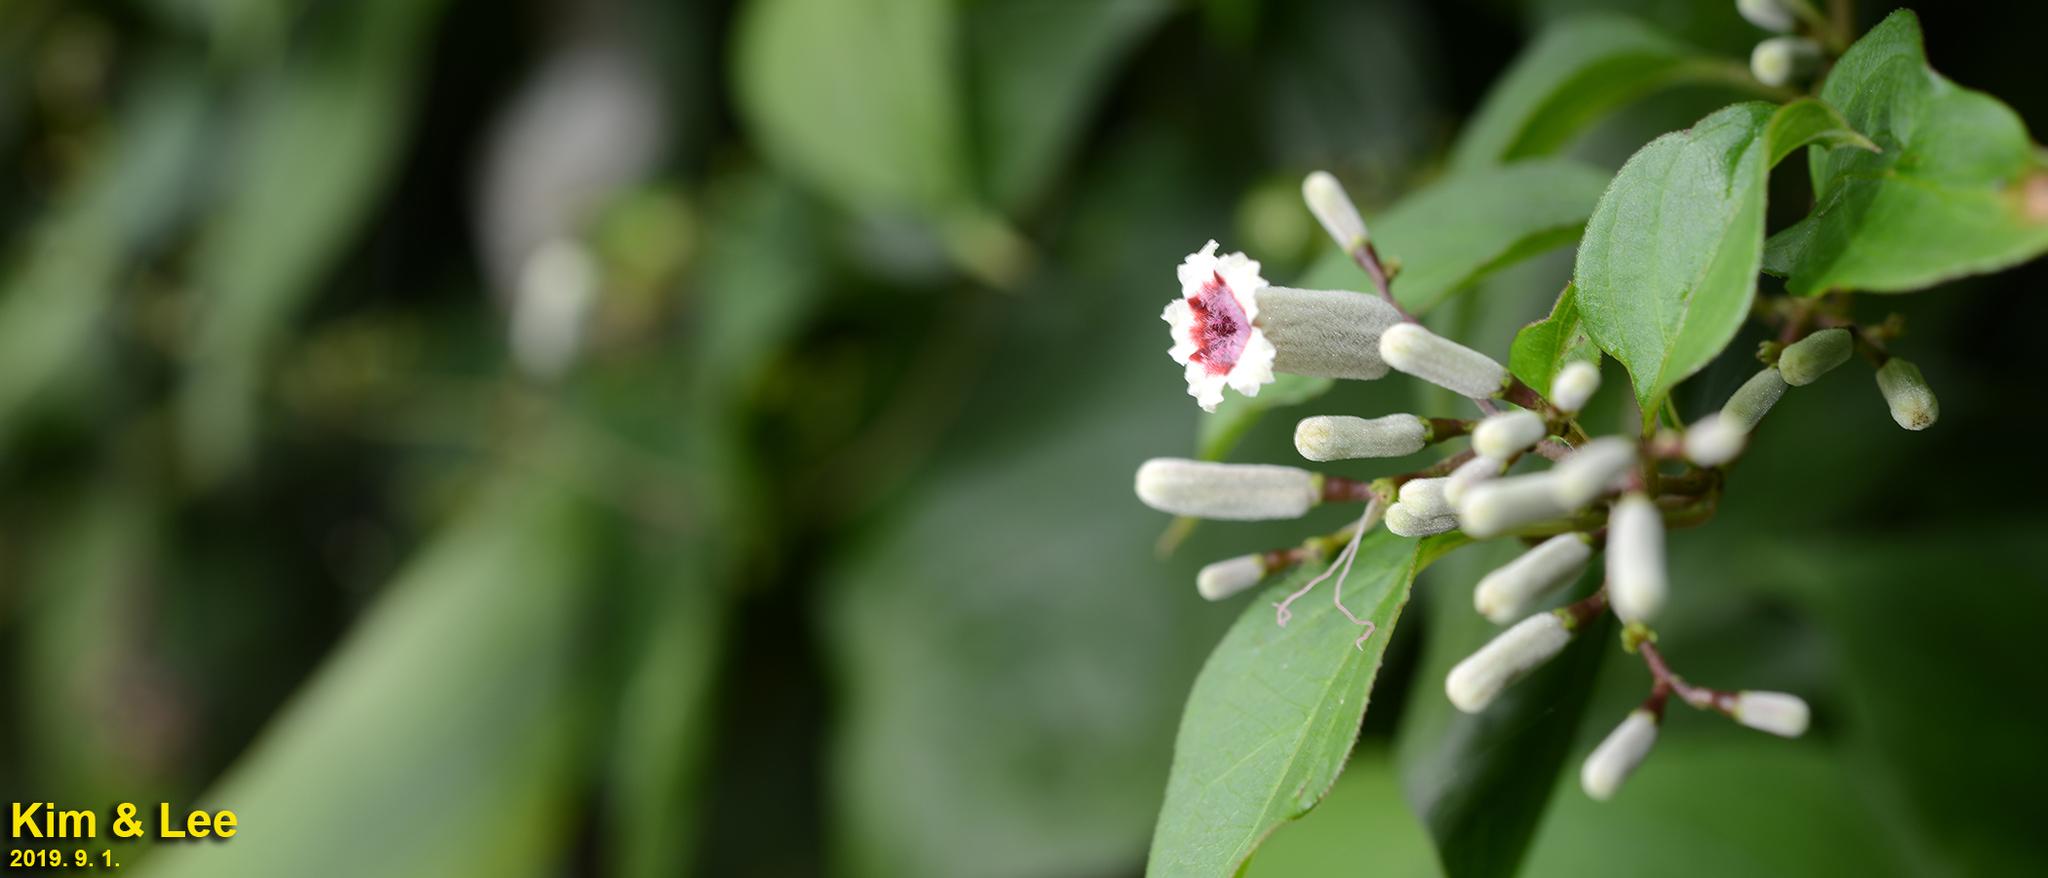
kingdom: Plantae
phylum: Tracheophyta
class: Magnoliopsida
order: Gentianales
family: Rubiaceae
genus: Paederia
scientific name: Paederia foetida
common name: Stinkvine
